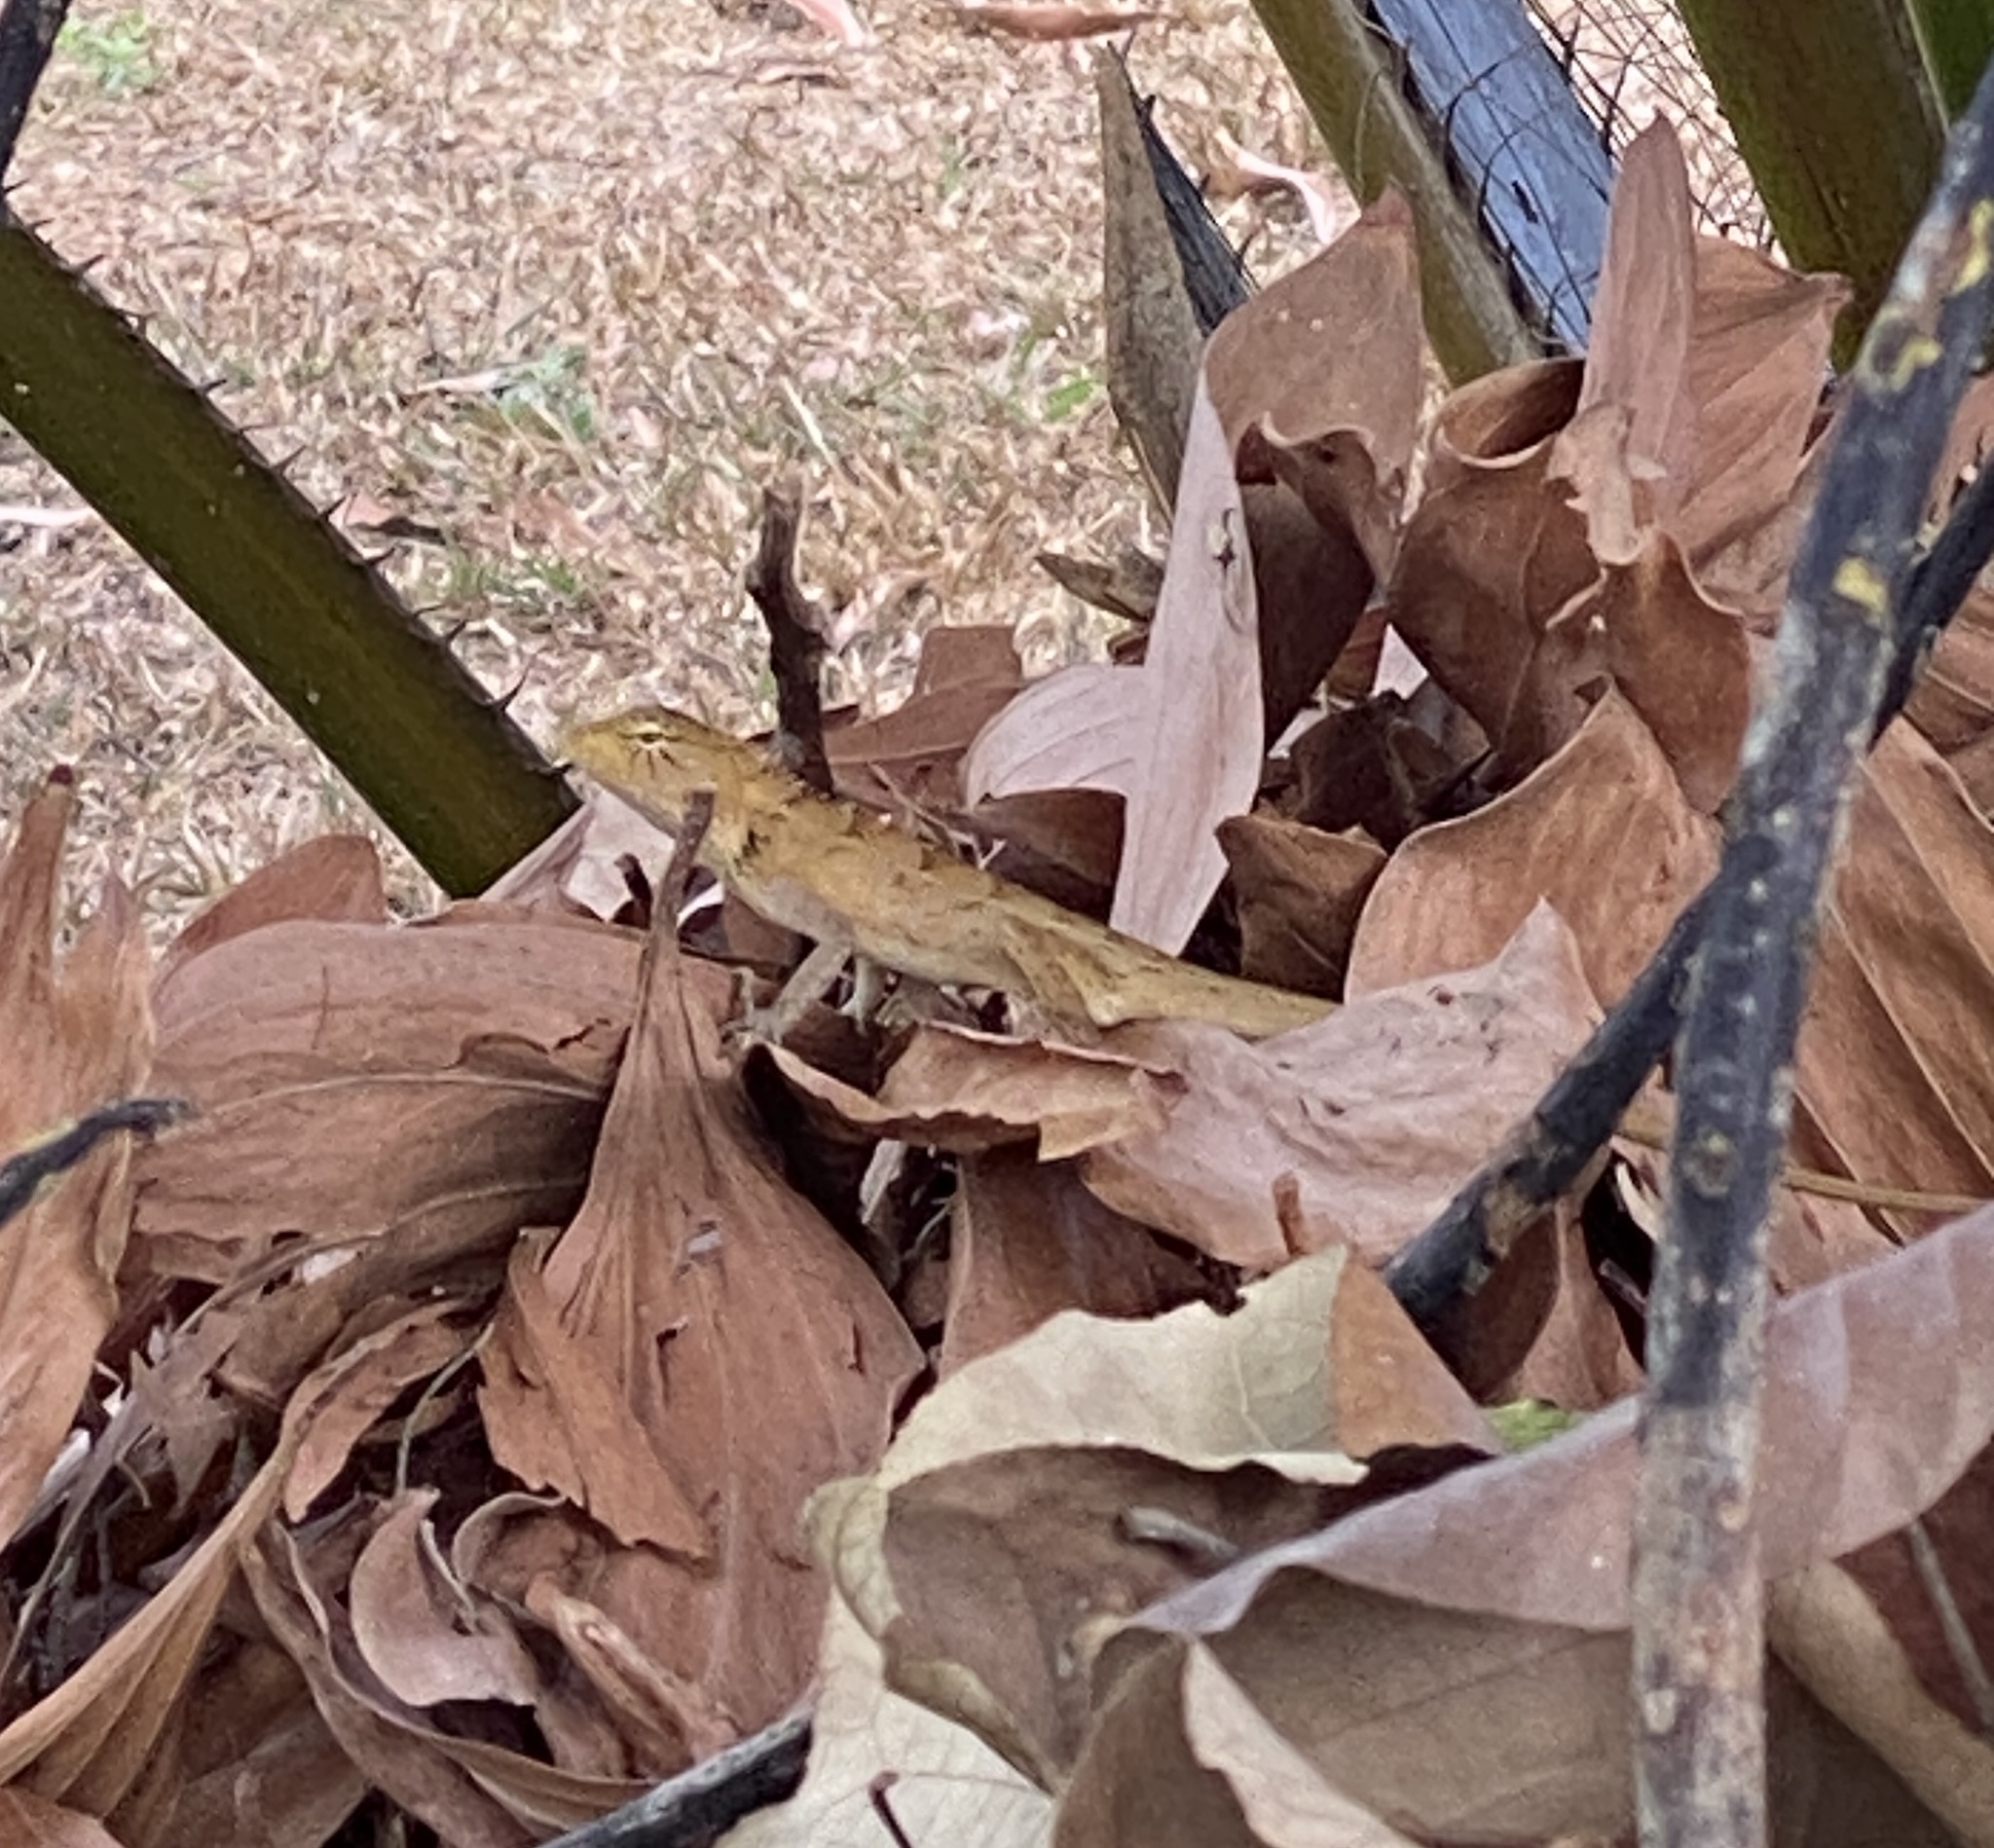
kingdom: Animalia
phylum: Chordata
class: Squamata
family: Agamidae
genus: Calotes
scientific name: Calotes versicolor
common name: Oriental garden lizard
